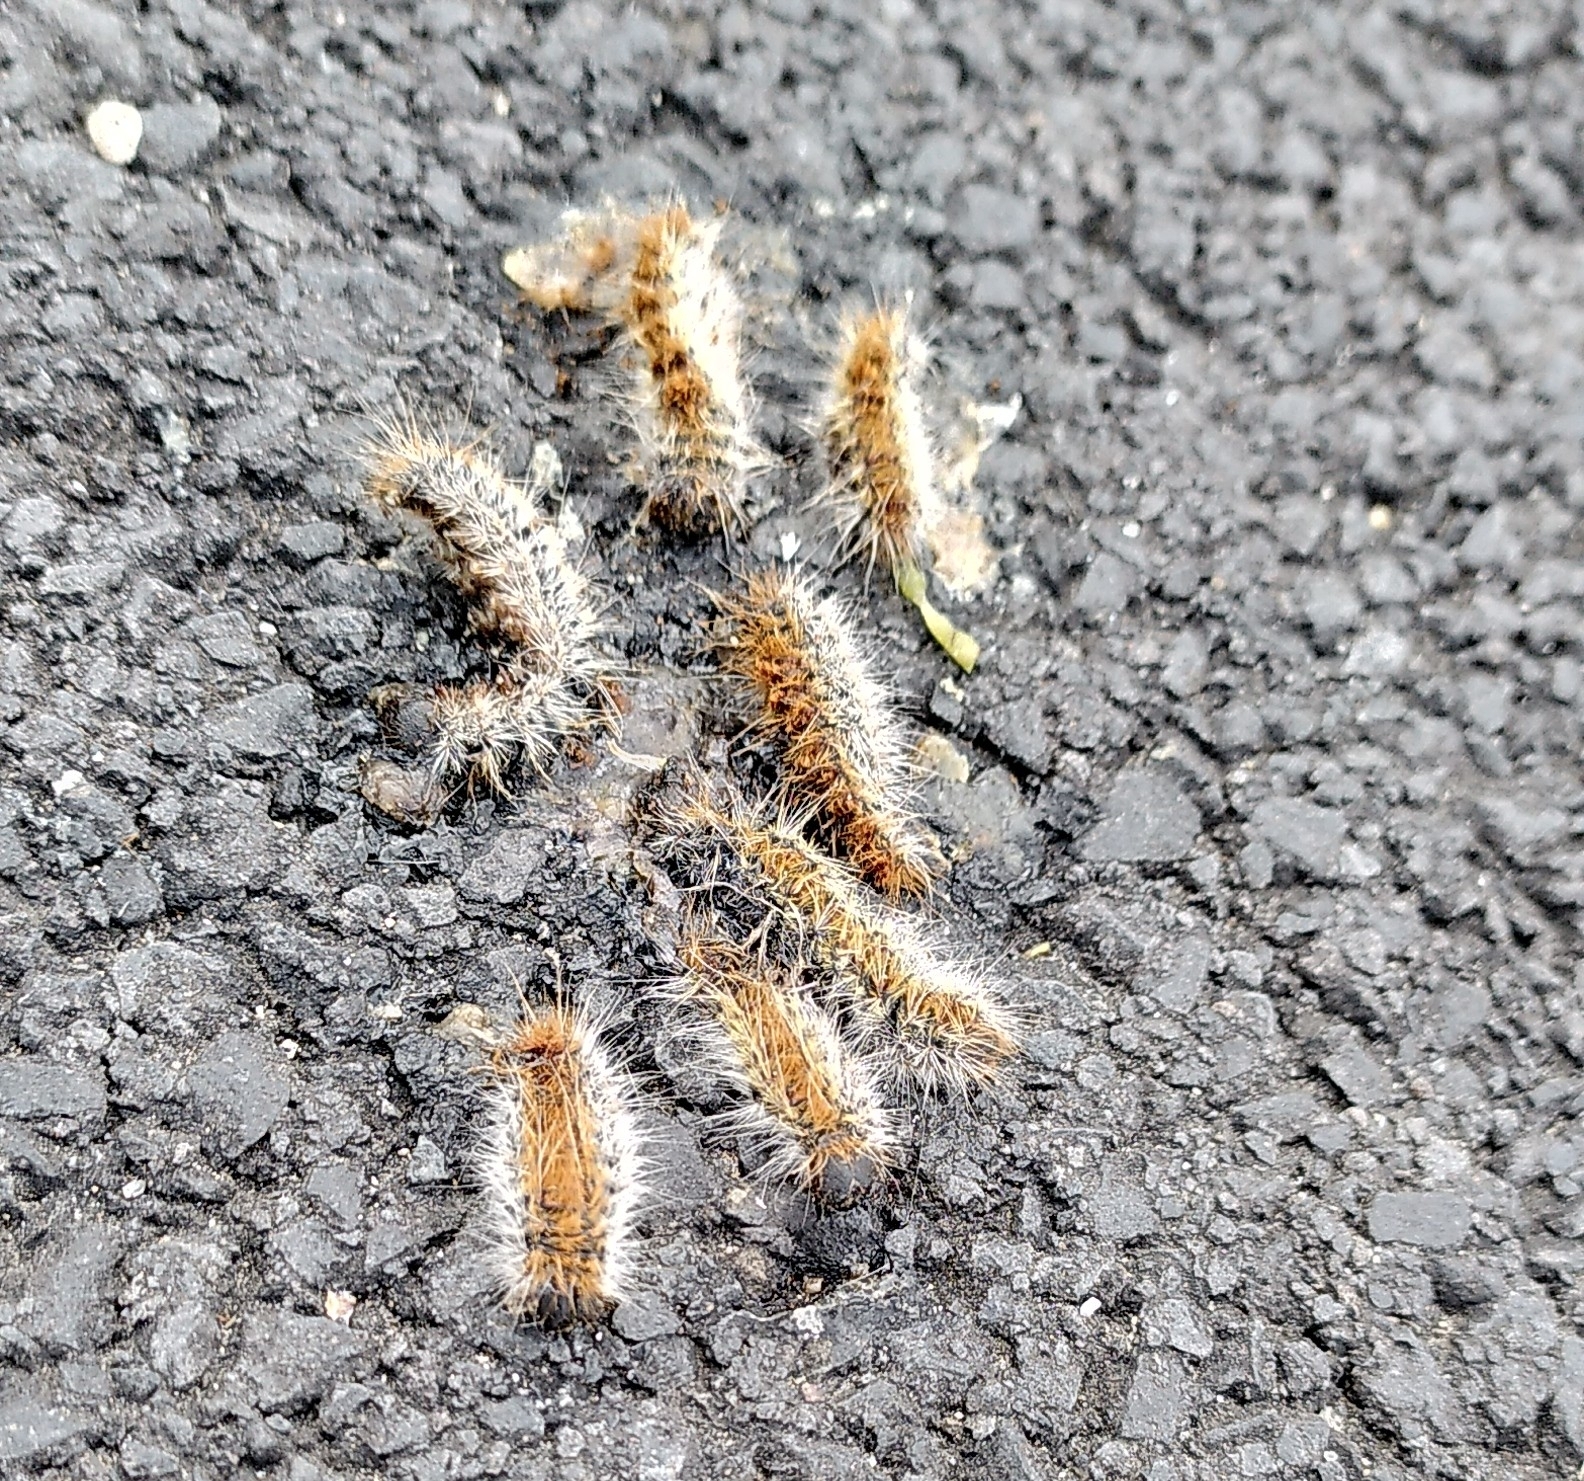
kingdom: Animalia
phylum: Arthropoda
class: Insecta
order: Lepidoptera
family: Notodontidae
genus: Thaumetopoea
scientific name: Thaumetopoea pityocampa
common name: Pine processionary
